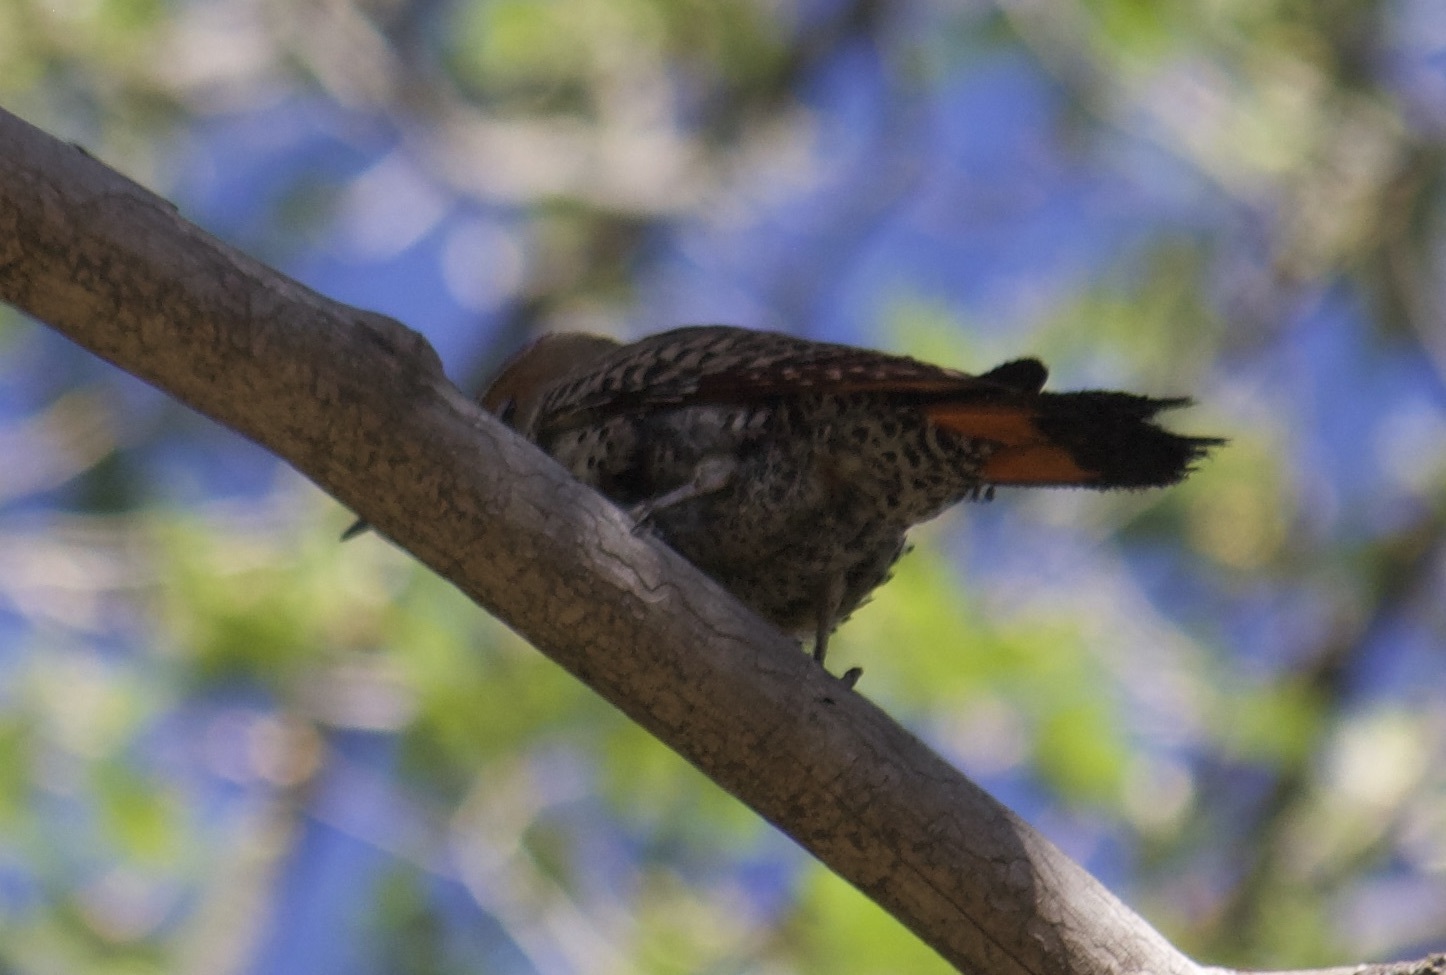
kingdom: Animalia
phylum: Chordata
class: Aves
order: Piciformes
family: Picidae
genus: Colaptes
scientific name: Colaptes auratus
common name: Northern flicker
